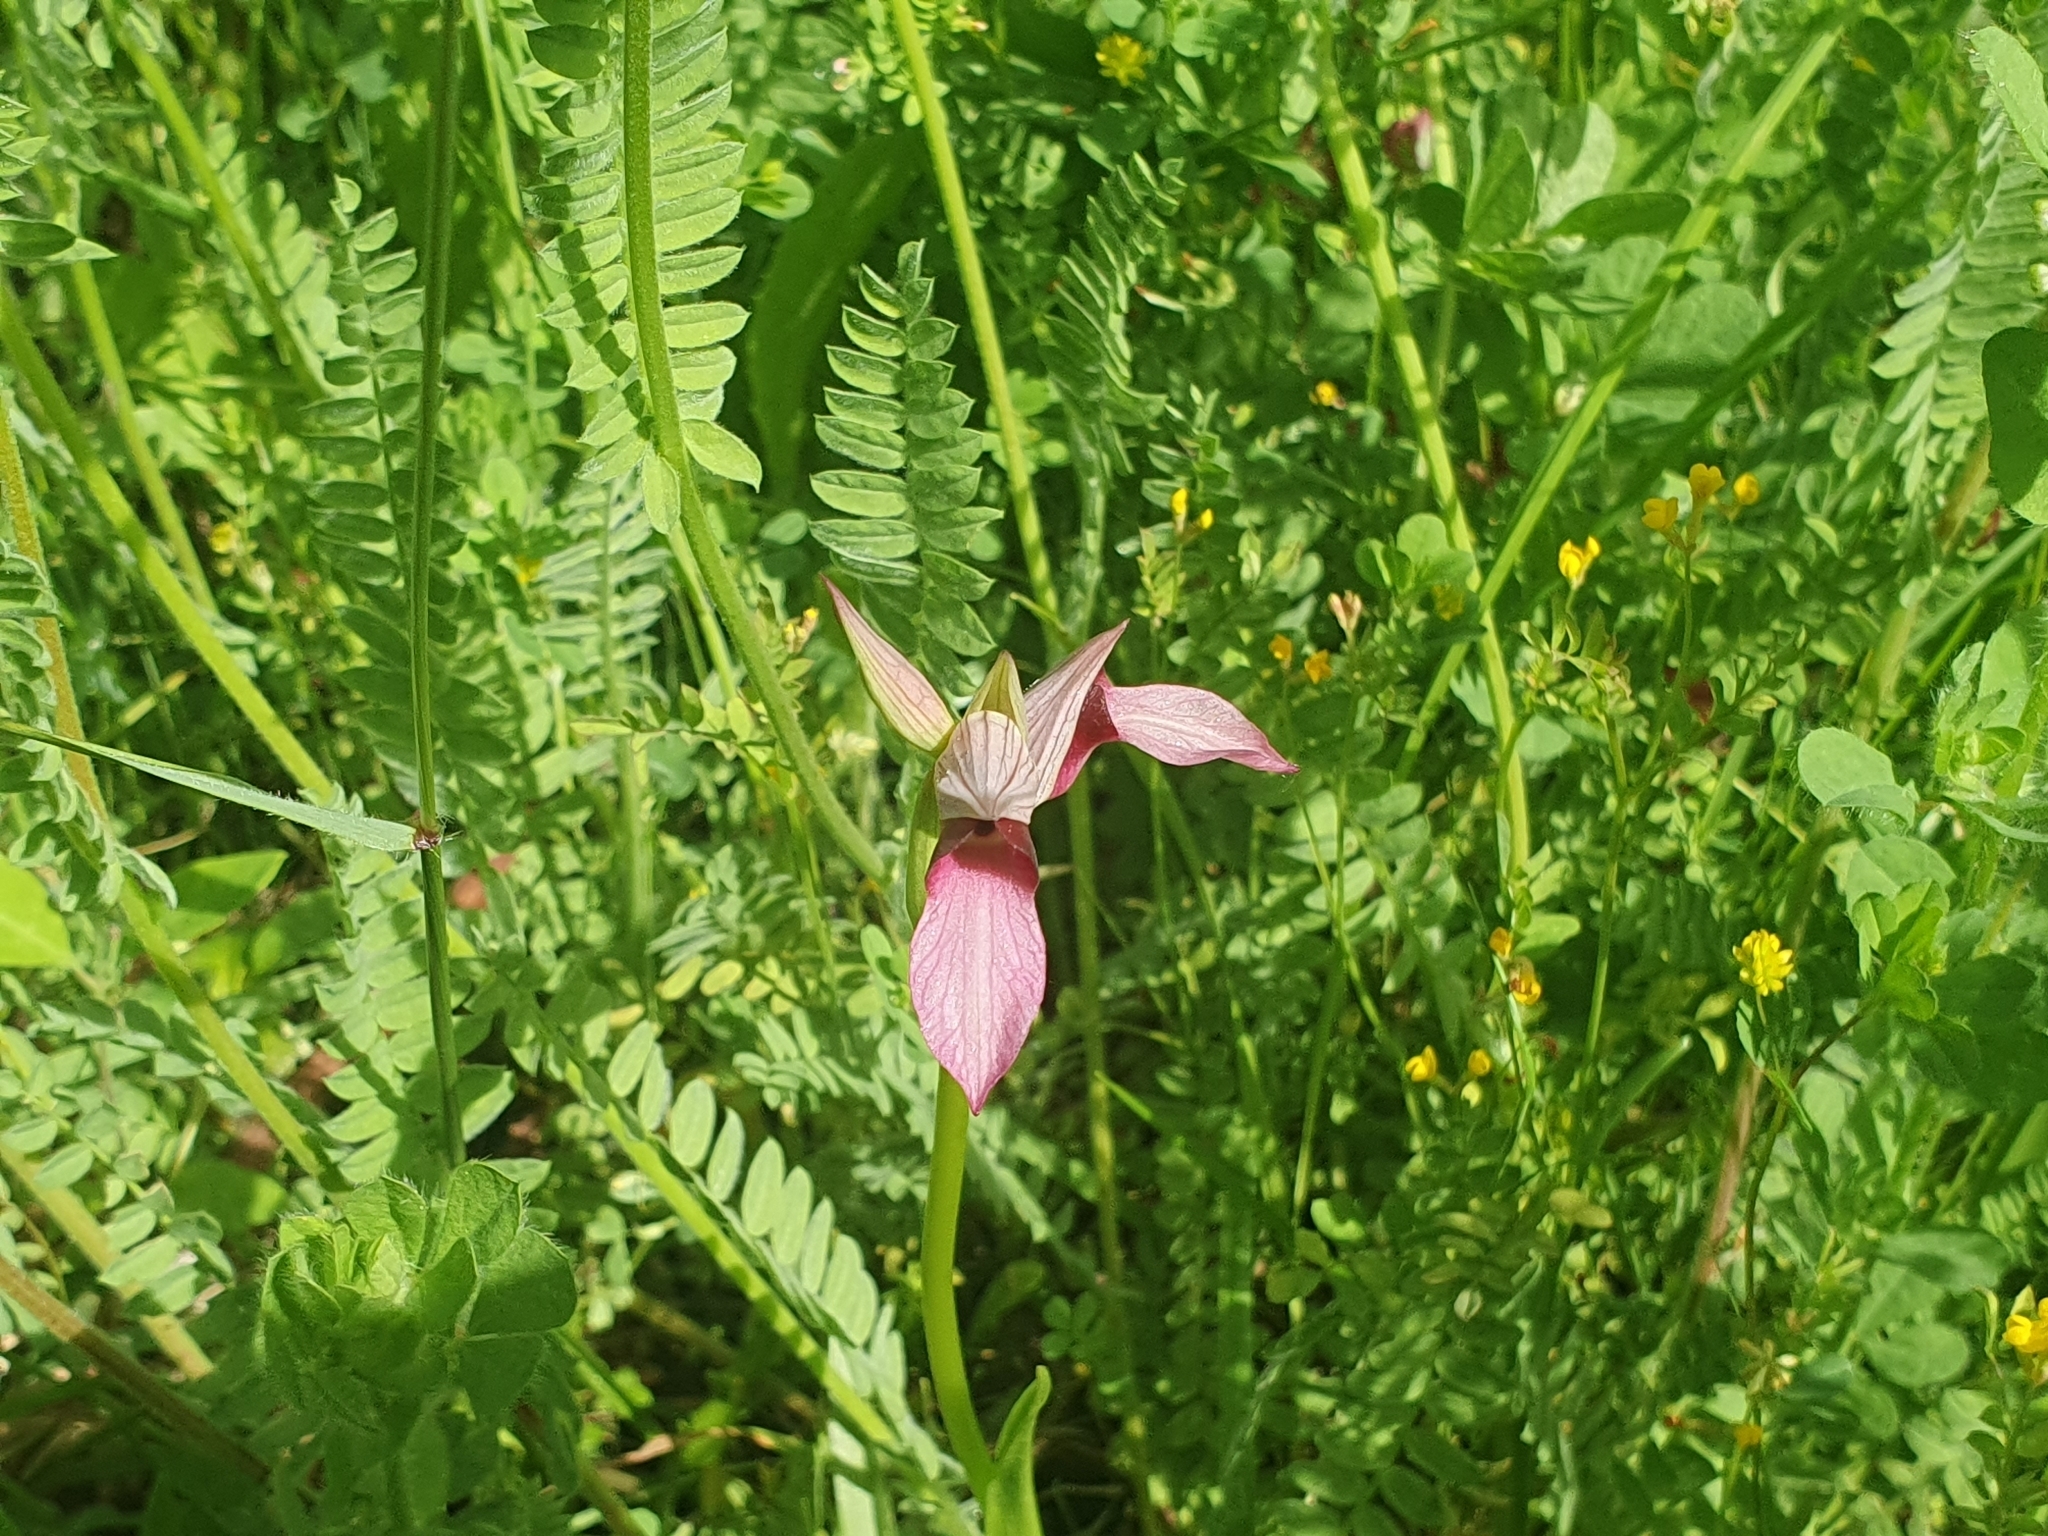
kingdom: Plantae
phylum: Tracheophyta
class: Liliopsida
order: Asparagales
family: Orchidaceae
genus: Serapias
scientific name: Serapias lingua
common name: Tongue-orchid
